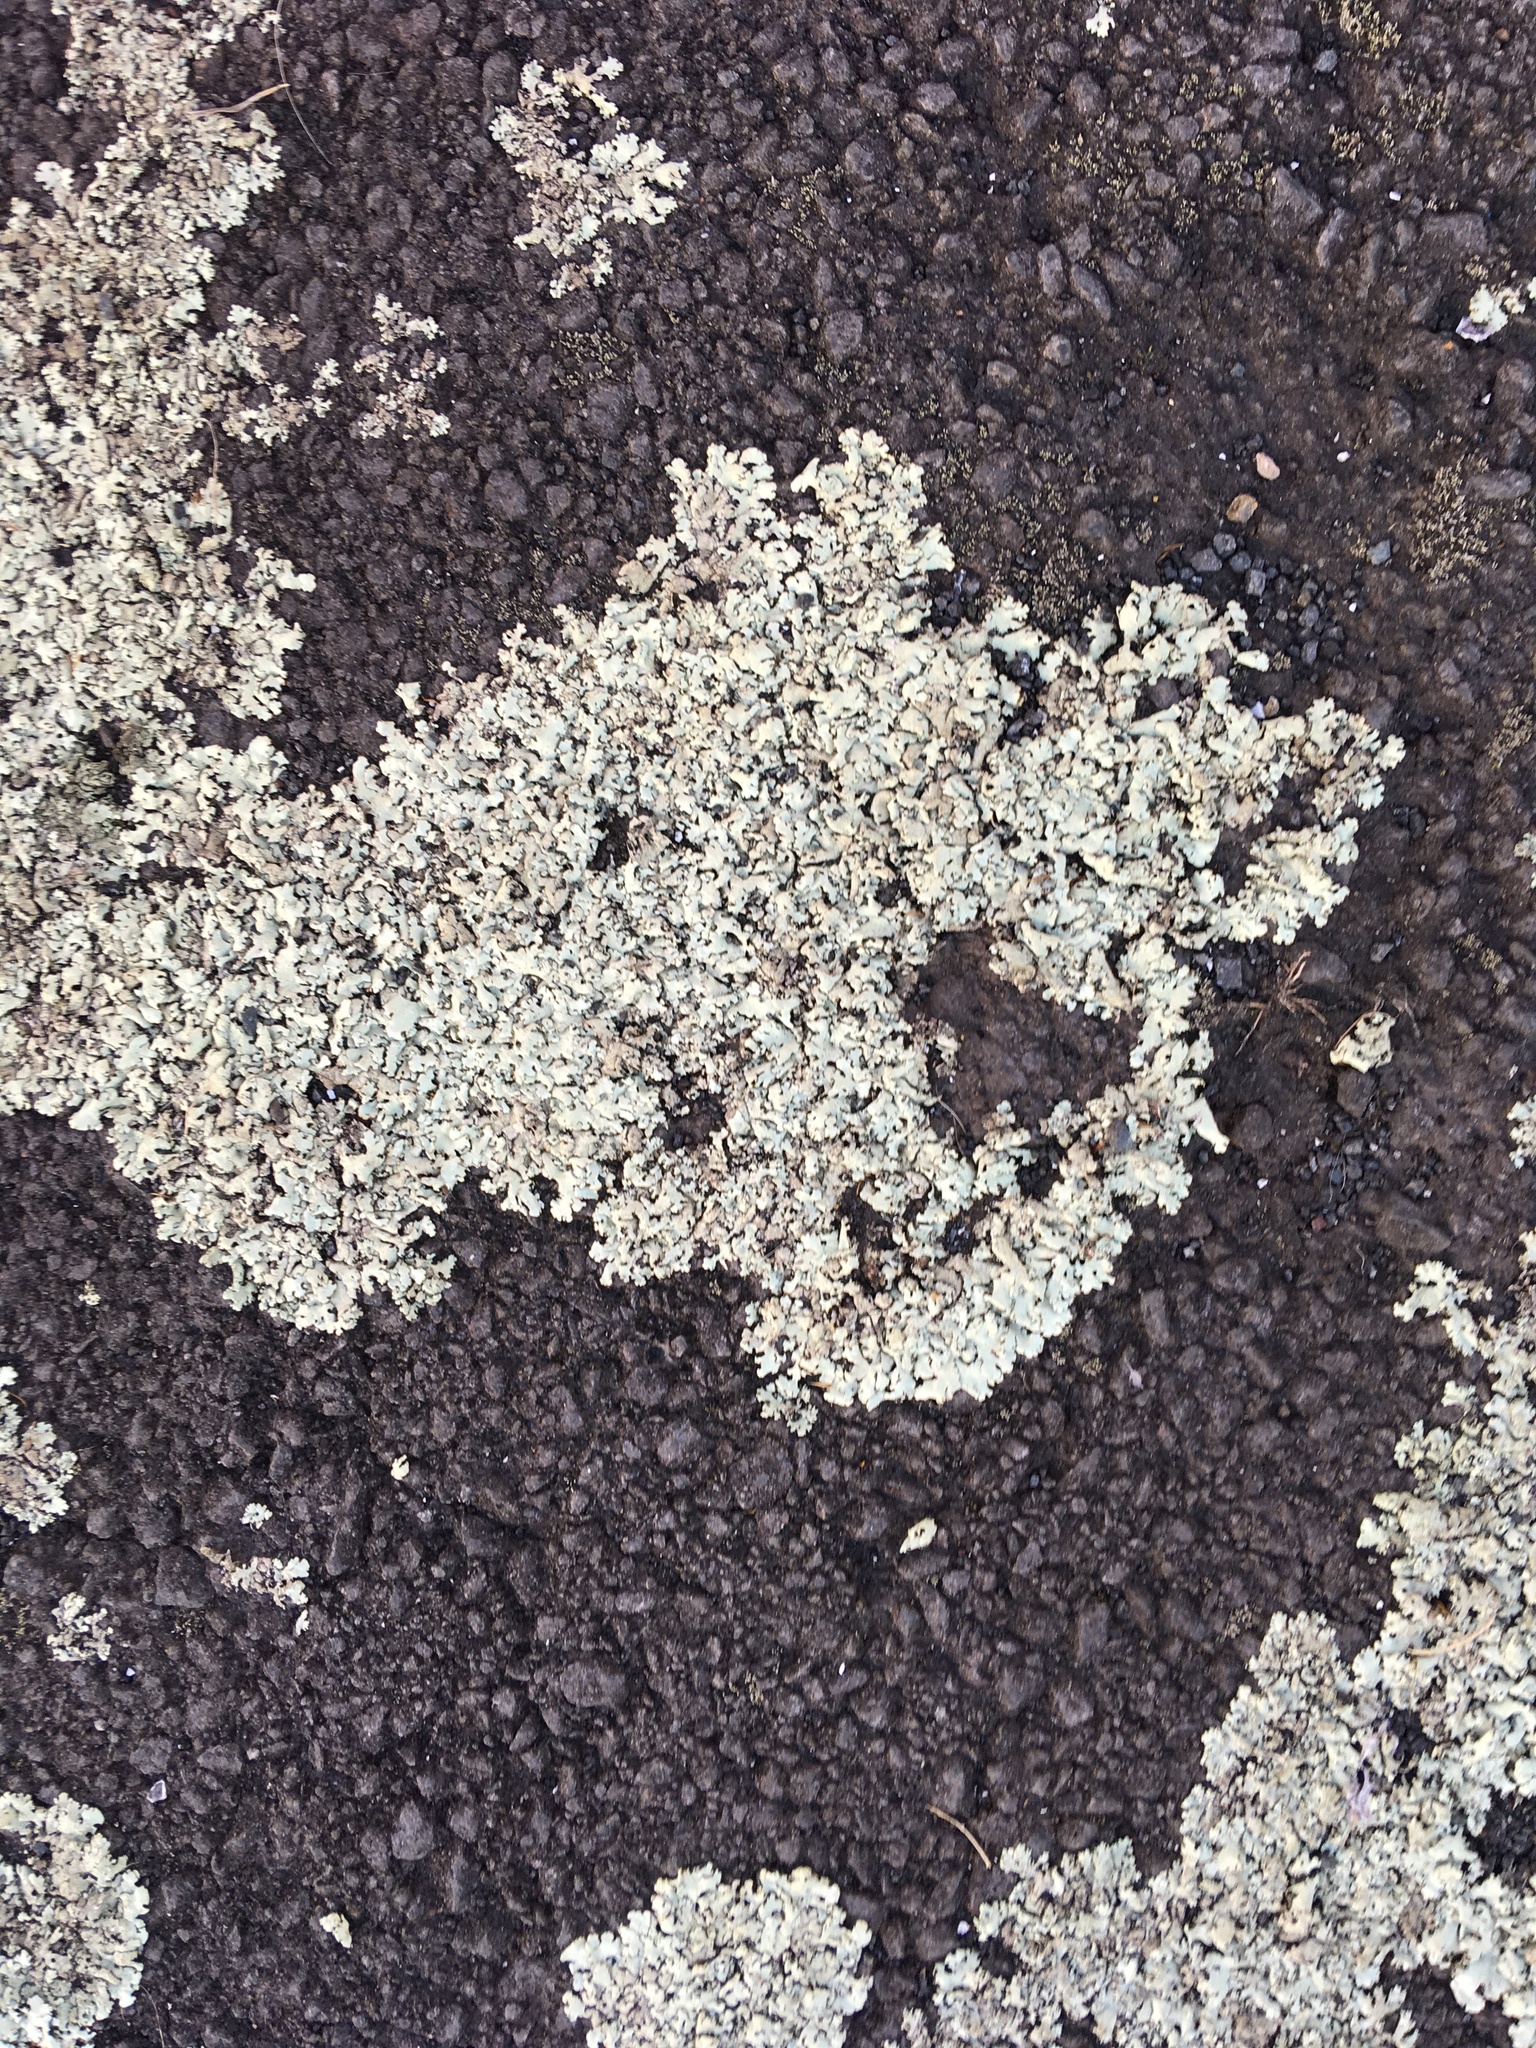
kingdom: Fungi
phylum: Ascomycota
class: Lecanoromycetes
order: Lecanorales
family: Stereocaulaceae
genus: Lepraria
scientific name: Lepraria lobificans
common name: Fluffy dust lichen
